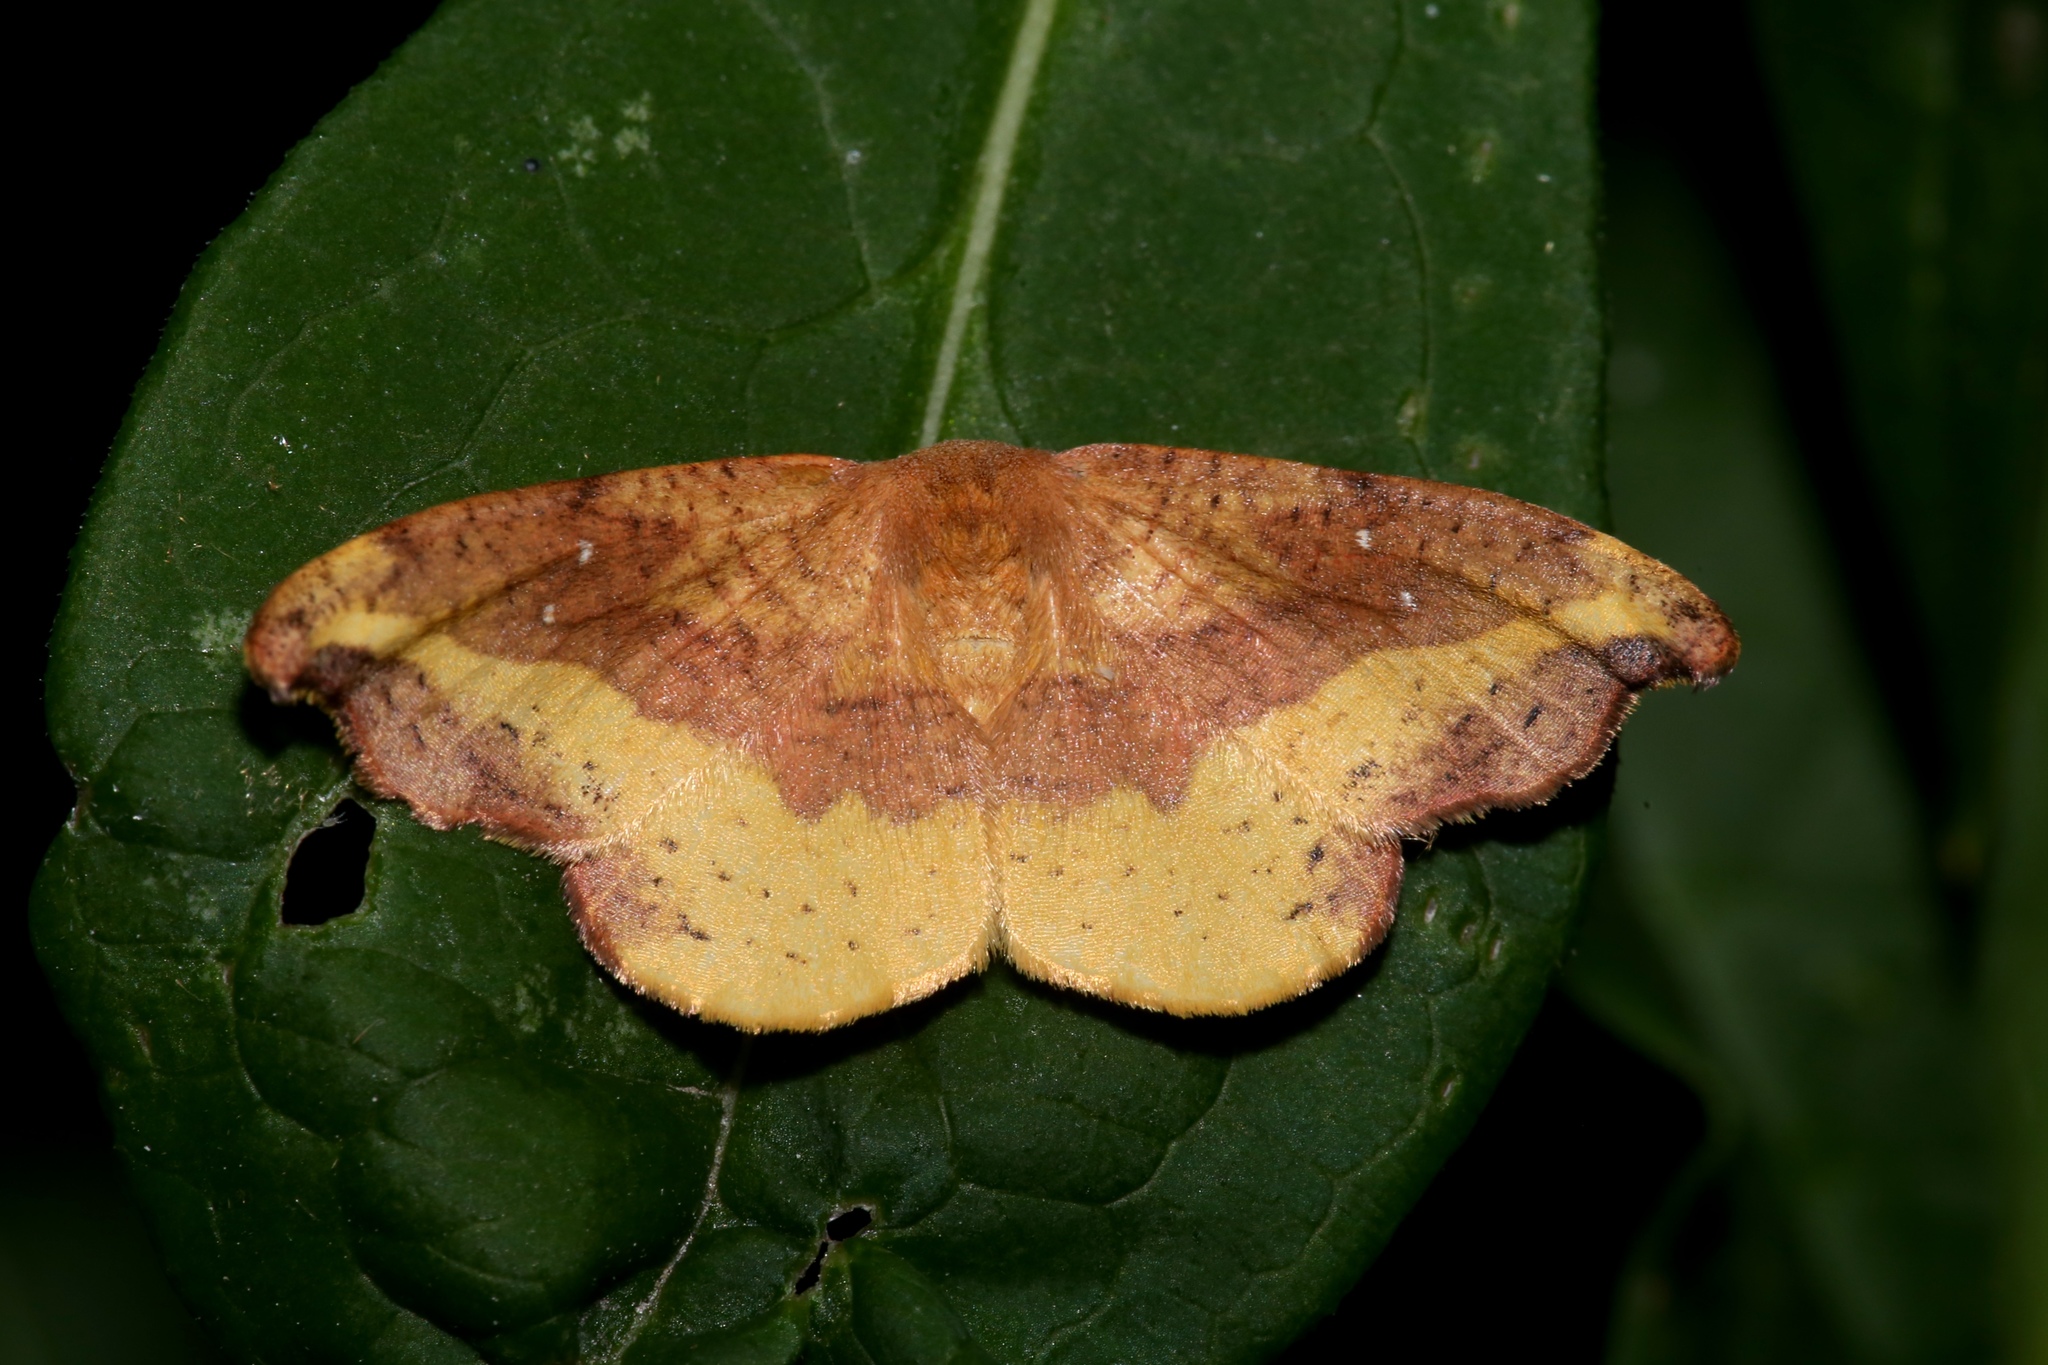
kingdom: Animalia
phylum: Arthropoda
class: Insecta
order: Lepidoptera
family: Drepanidae
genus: Oreta
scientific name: Oreta rosea
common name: Rose hooktip
